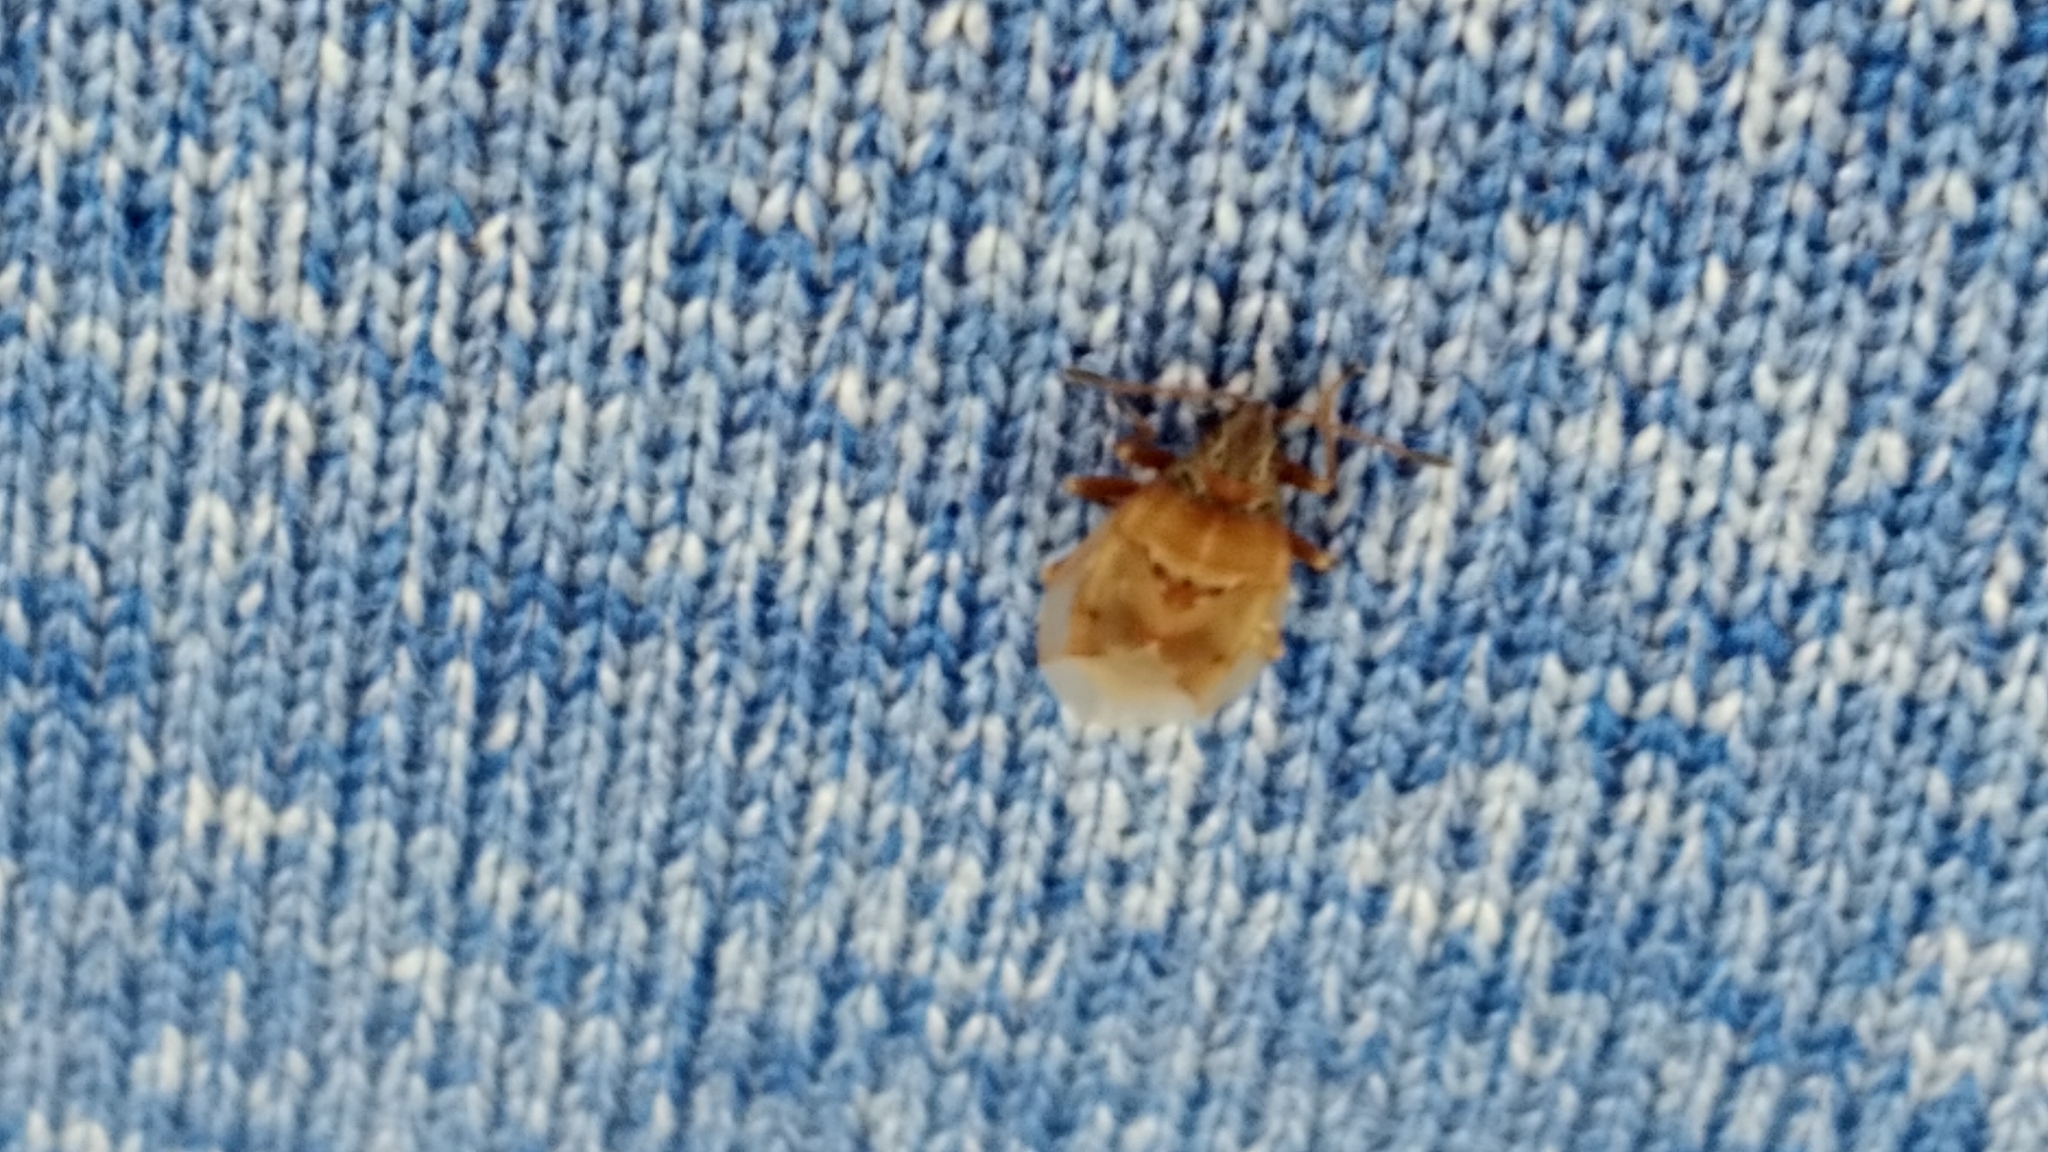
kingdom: Animalia
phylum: Arthropoda
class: Insecta
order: Hemiptera
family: Lygaeidae
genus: Kleidocerys
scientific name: Kleidocerys resedae
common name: Birch catkin bug
